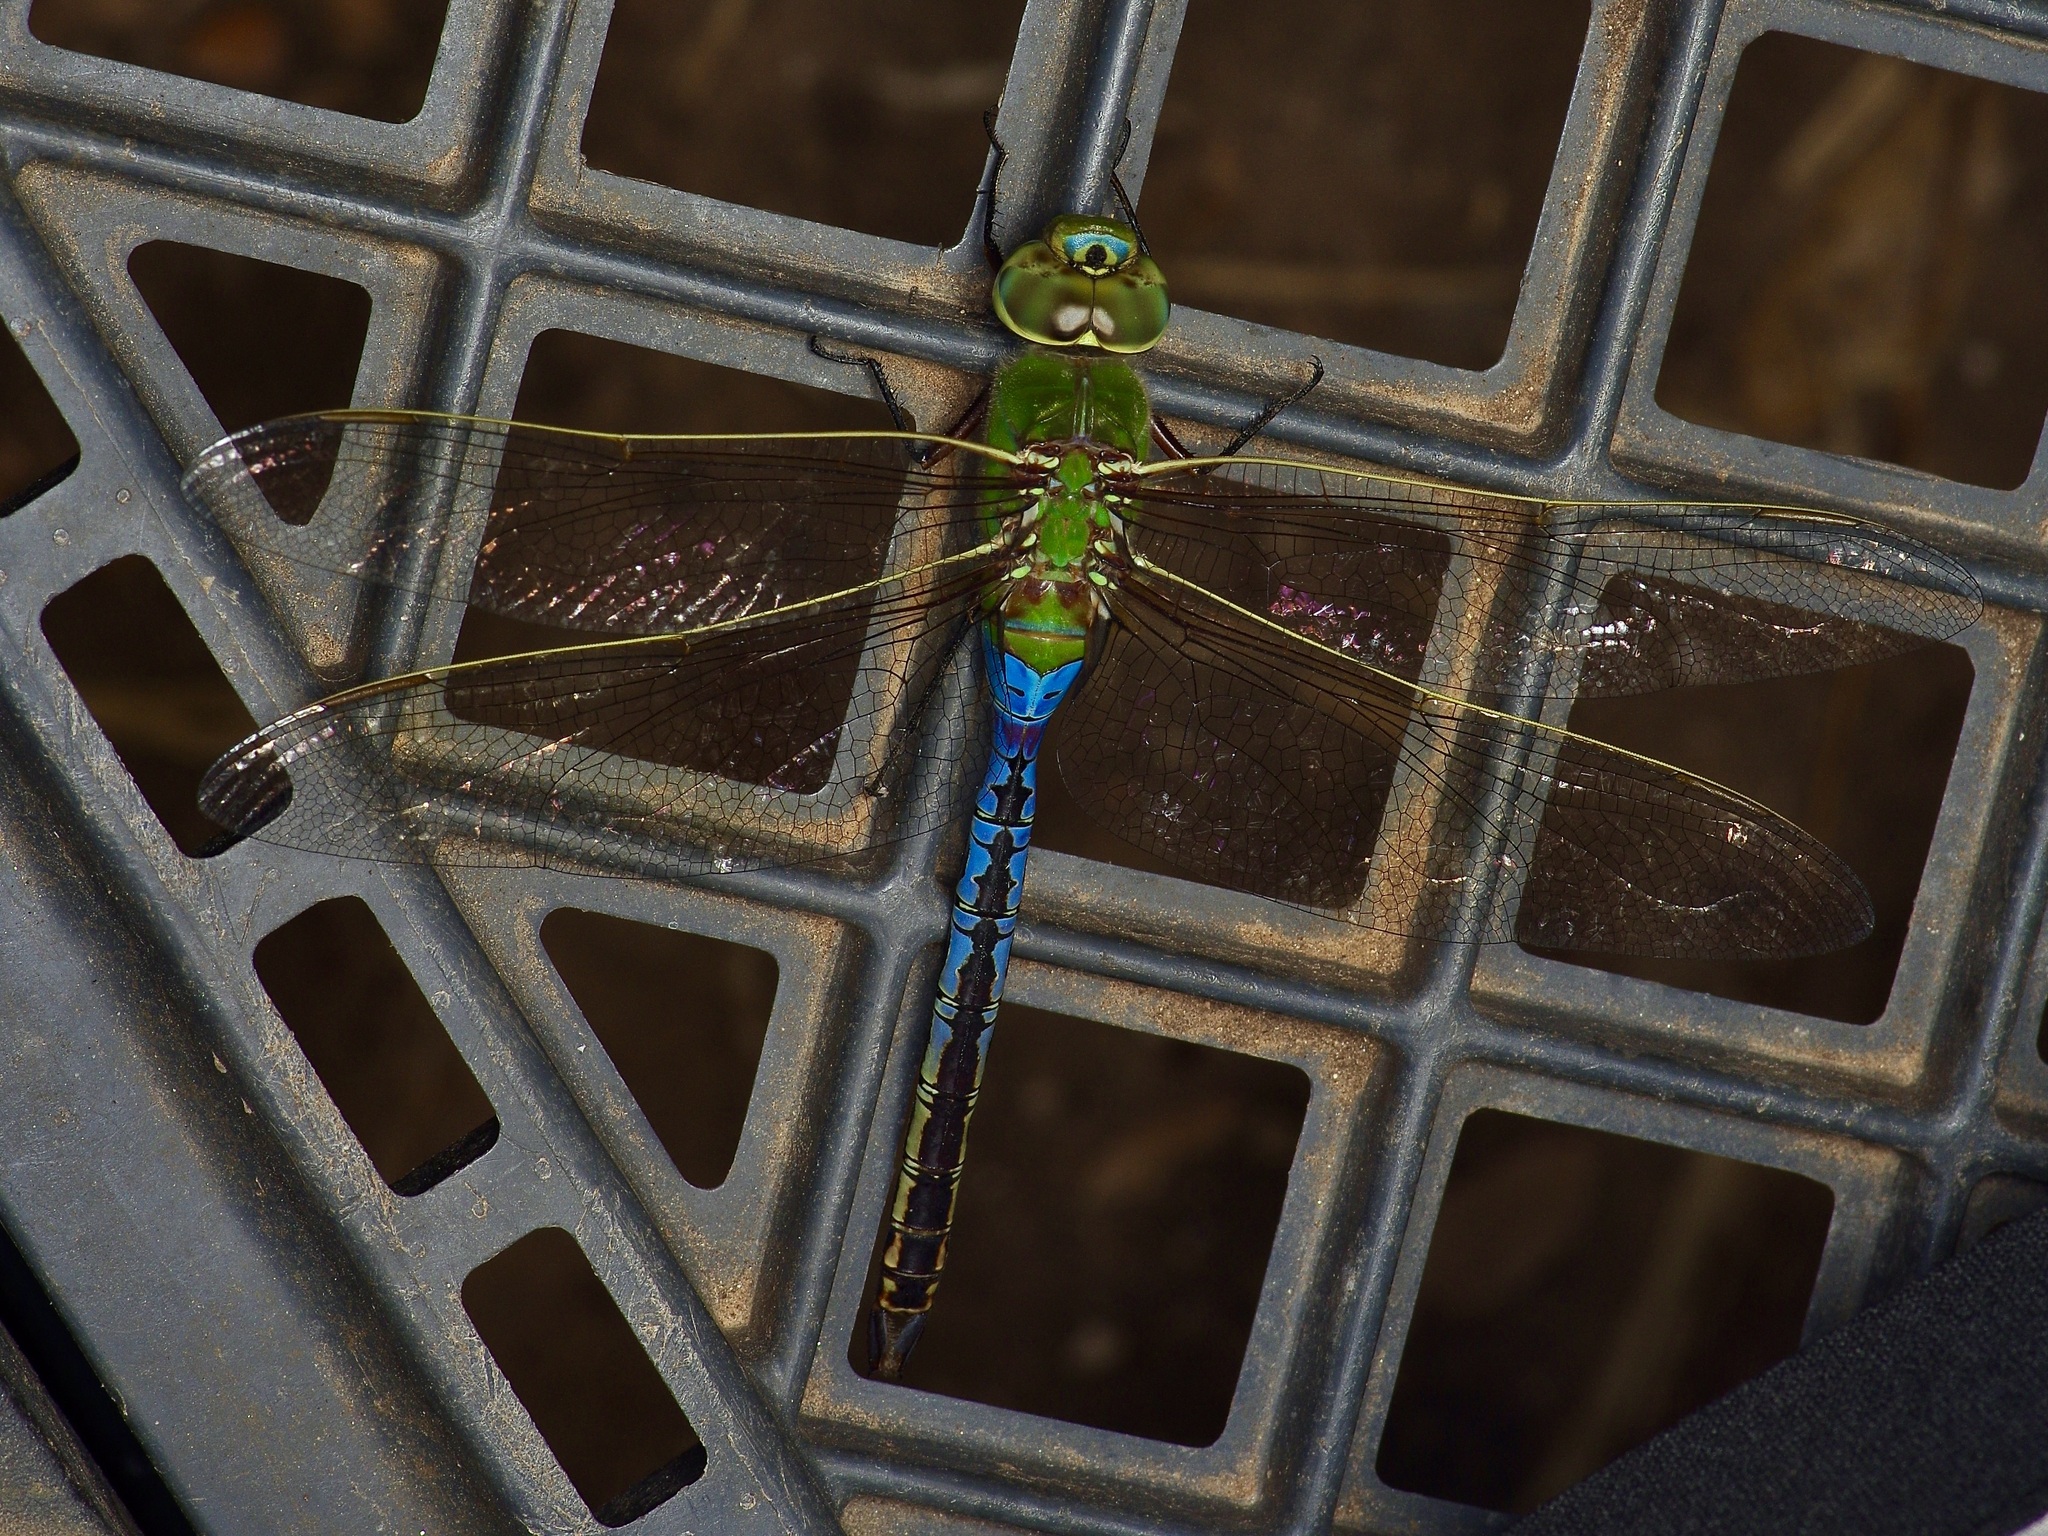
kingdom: Animalia
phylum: Arthropoda
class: Insecta
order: Odonata
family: Aeshnidae
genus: Anax
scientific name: Anax junius
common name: Common green darner
